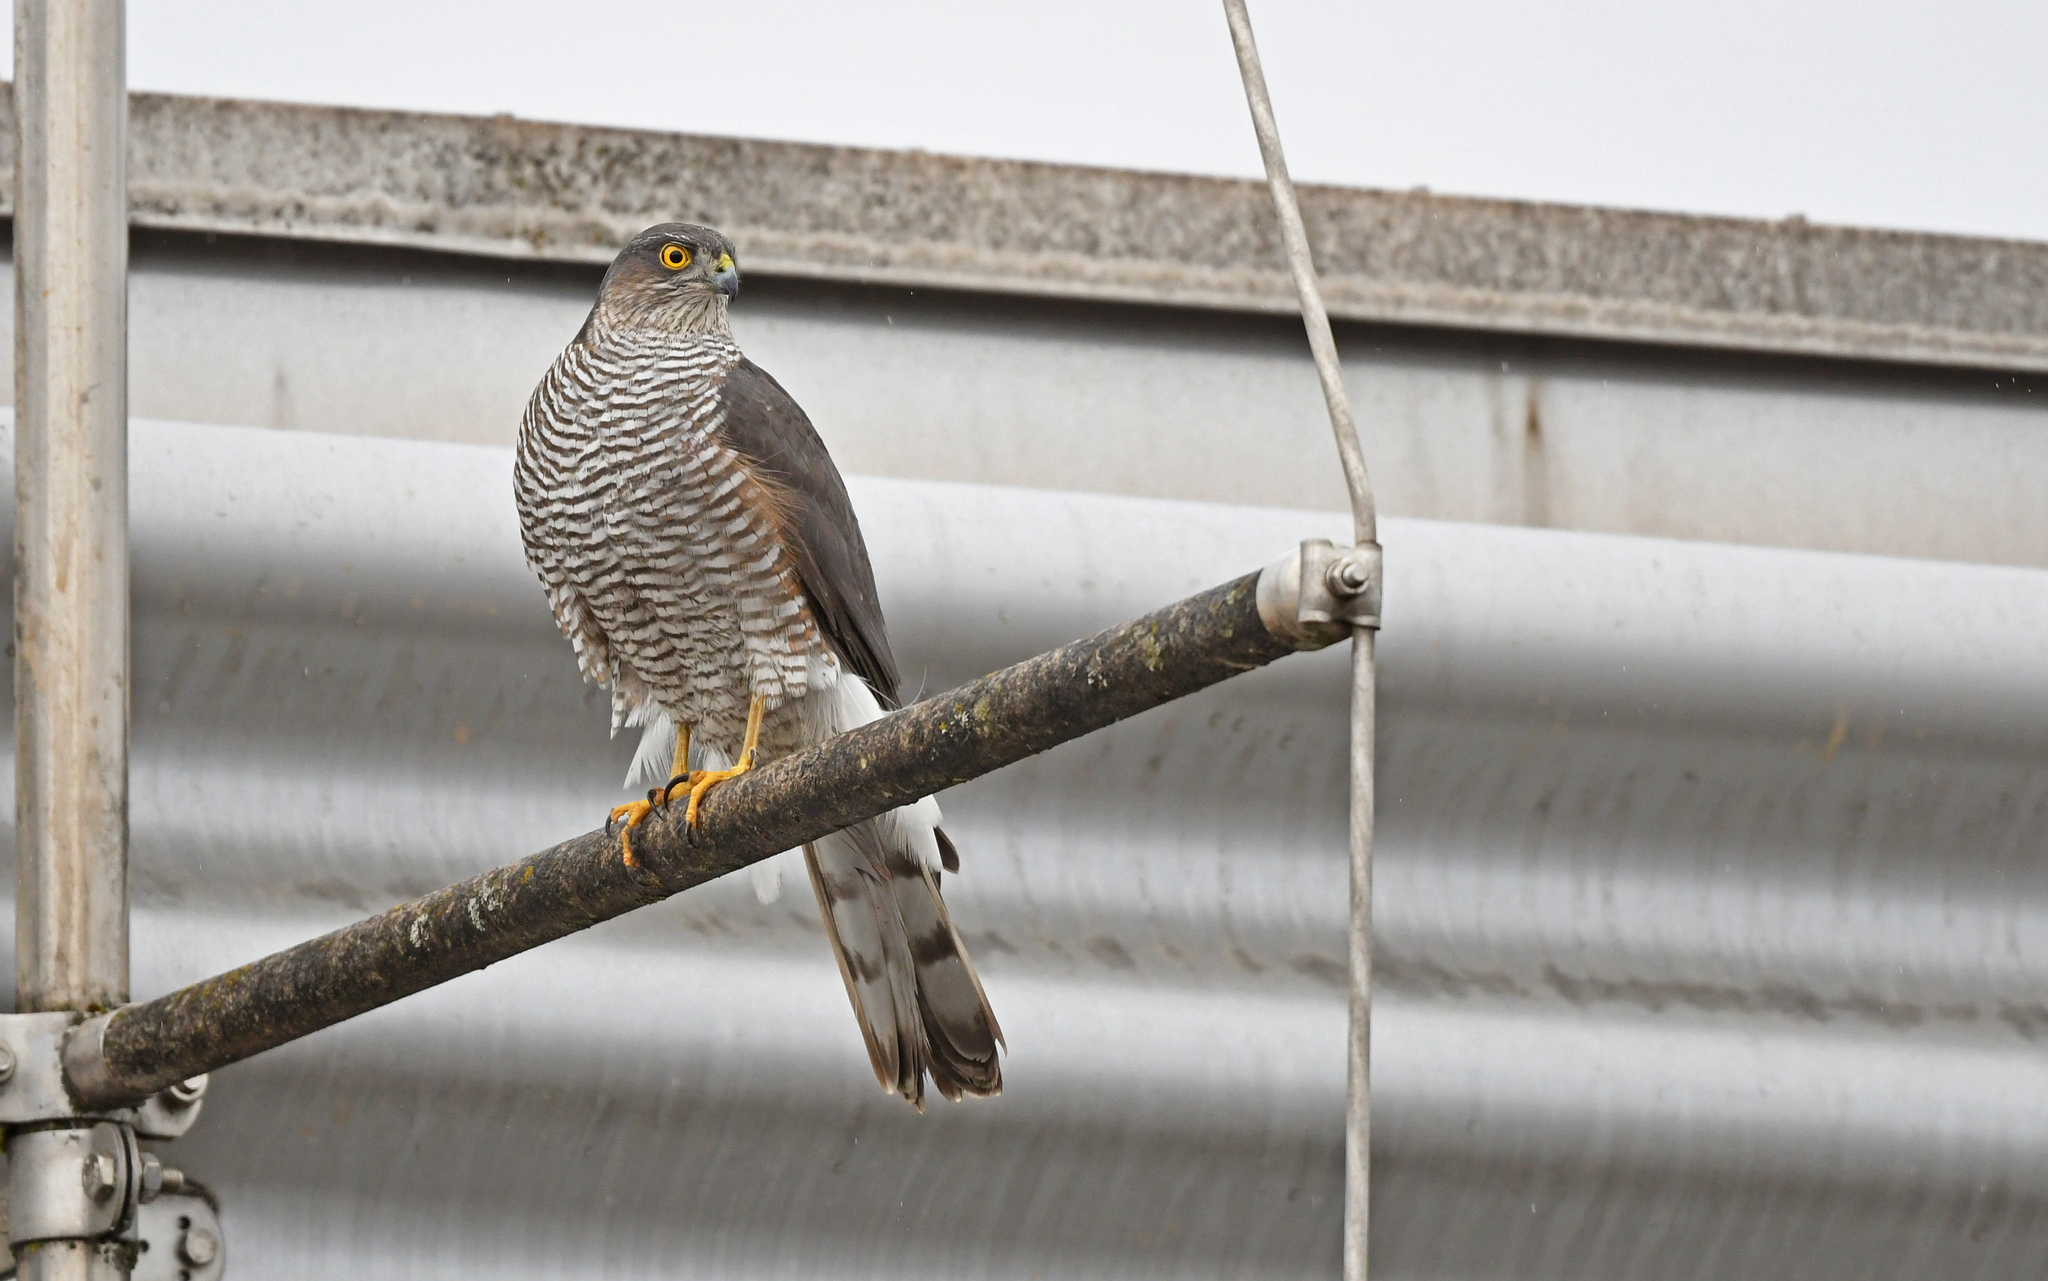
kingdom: Animalia
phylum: Chordata
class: Aves
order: Accipitriformes
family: Accipitridae
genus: Accipiter
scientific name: Accipiter nisus
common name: Eurasian sparrowhawk
